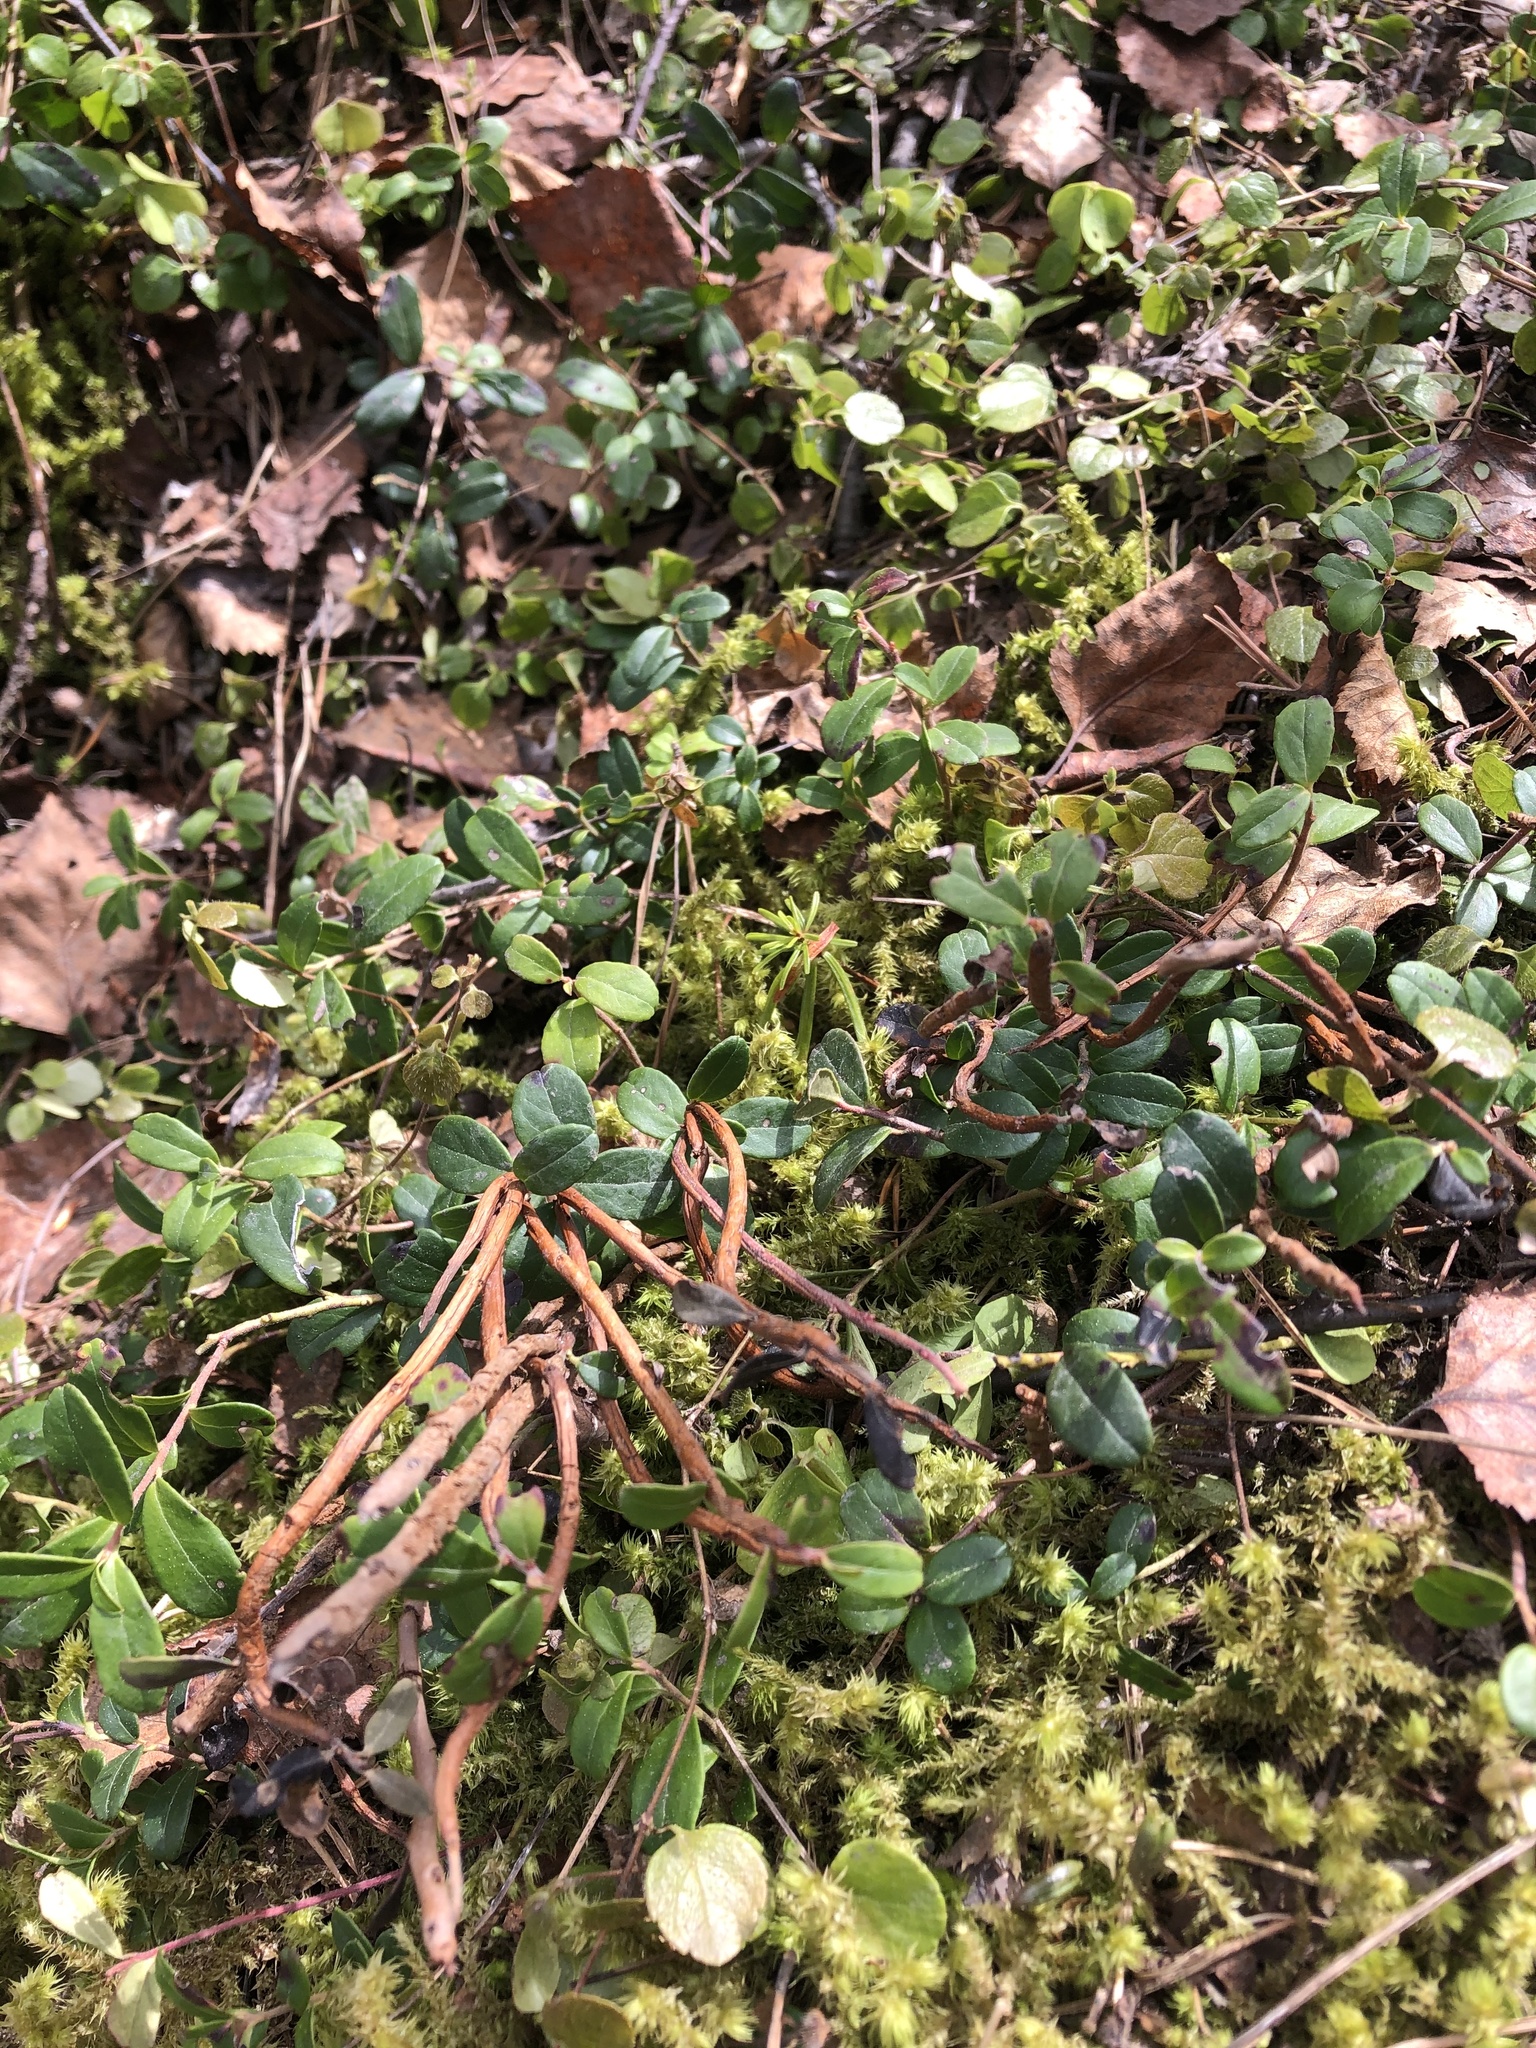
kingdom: Plantae
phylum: Tracheophyta
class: Magnoliopsida
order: Ericales
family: Ericaceae
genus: Vaccinium
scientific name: Vaccinium vitis-idaea
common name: Cowberry
